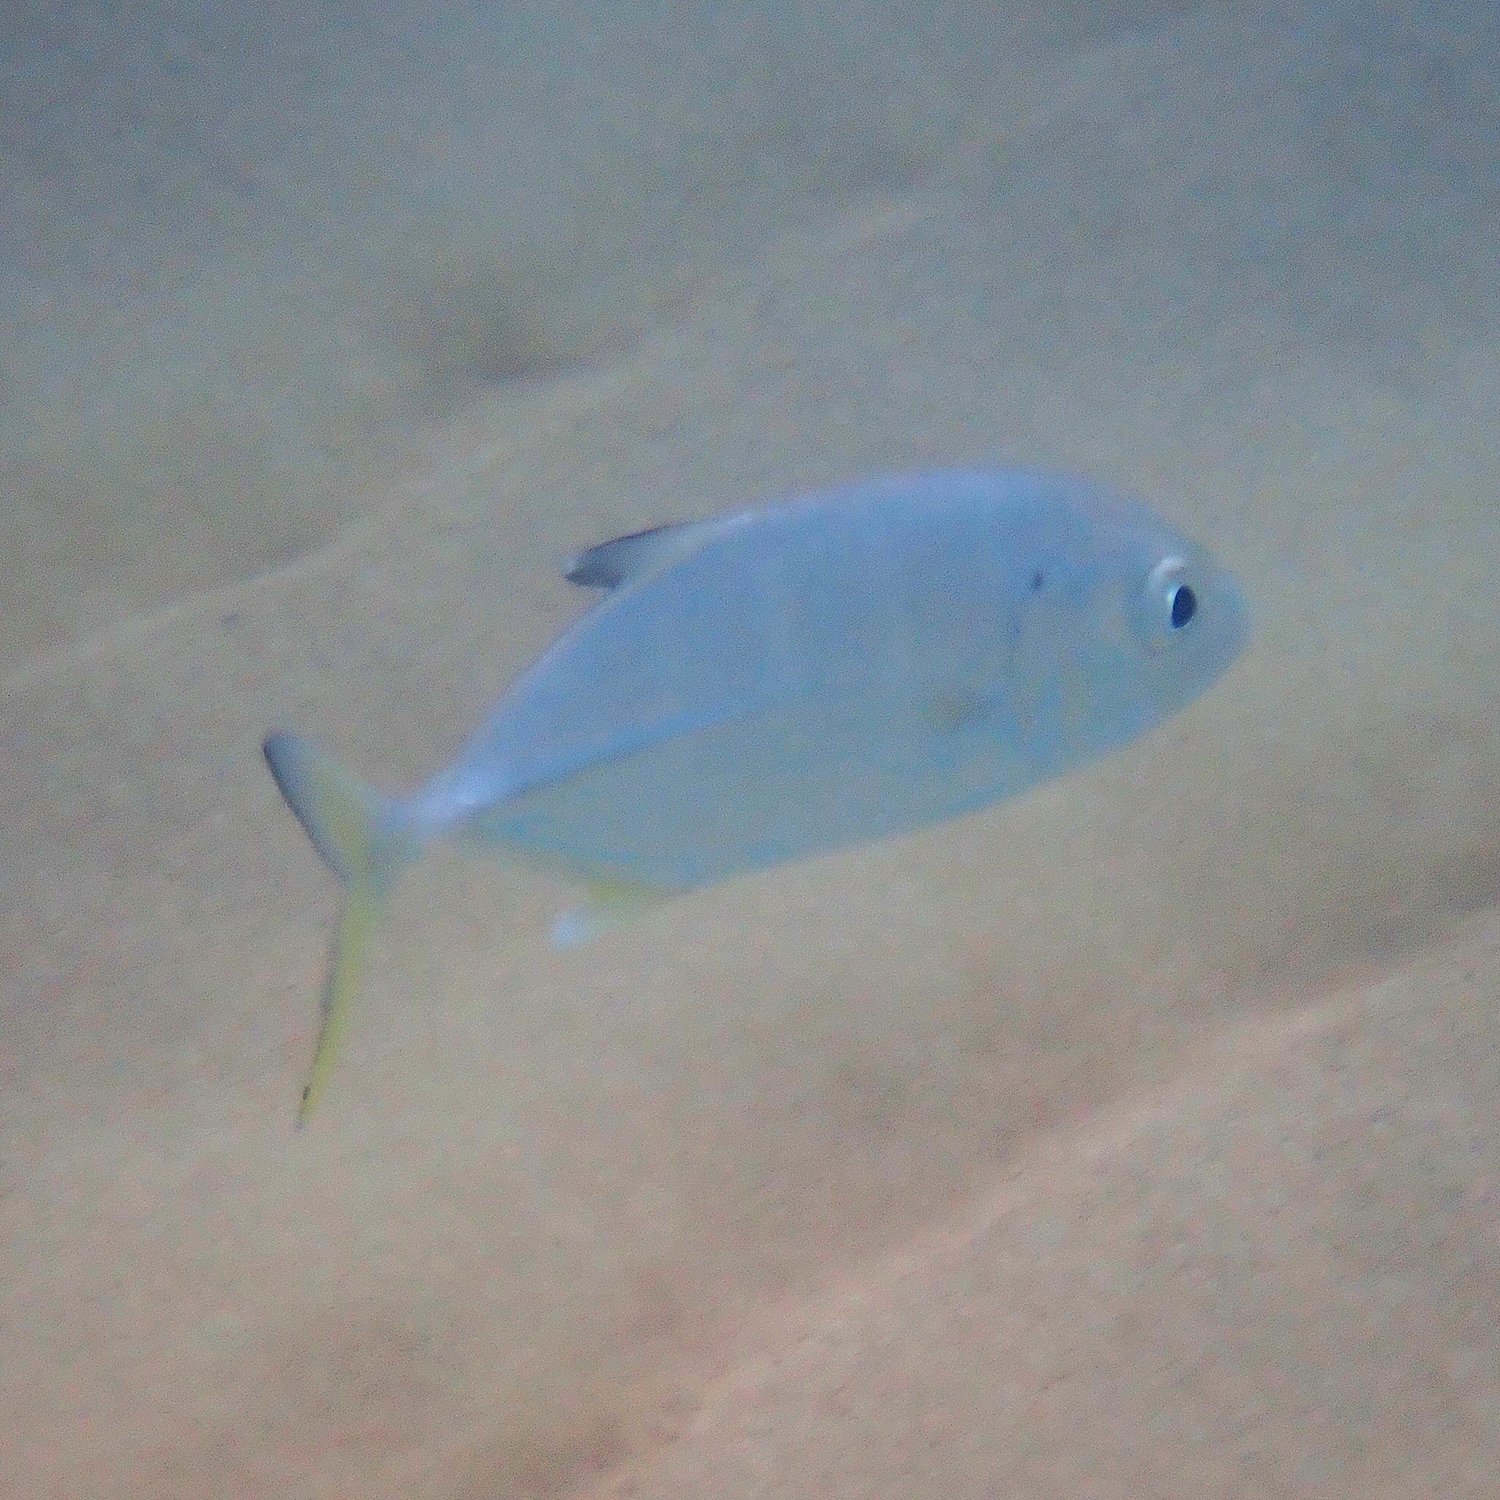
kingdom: Animalia
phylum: Chordata
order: Perciformes
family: Carangidae
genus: Caranx
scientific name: Caranx sexfasciatus
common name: Bigeye trevally
